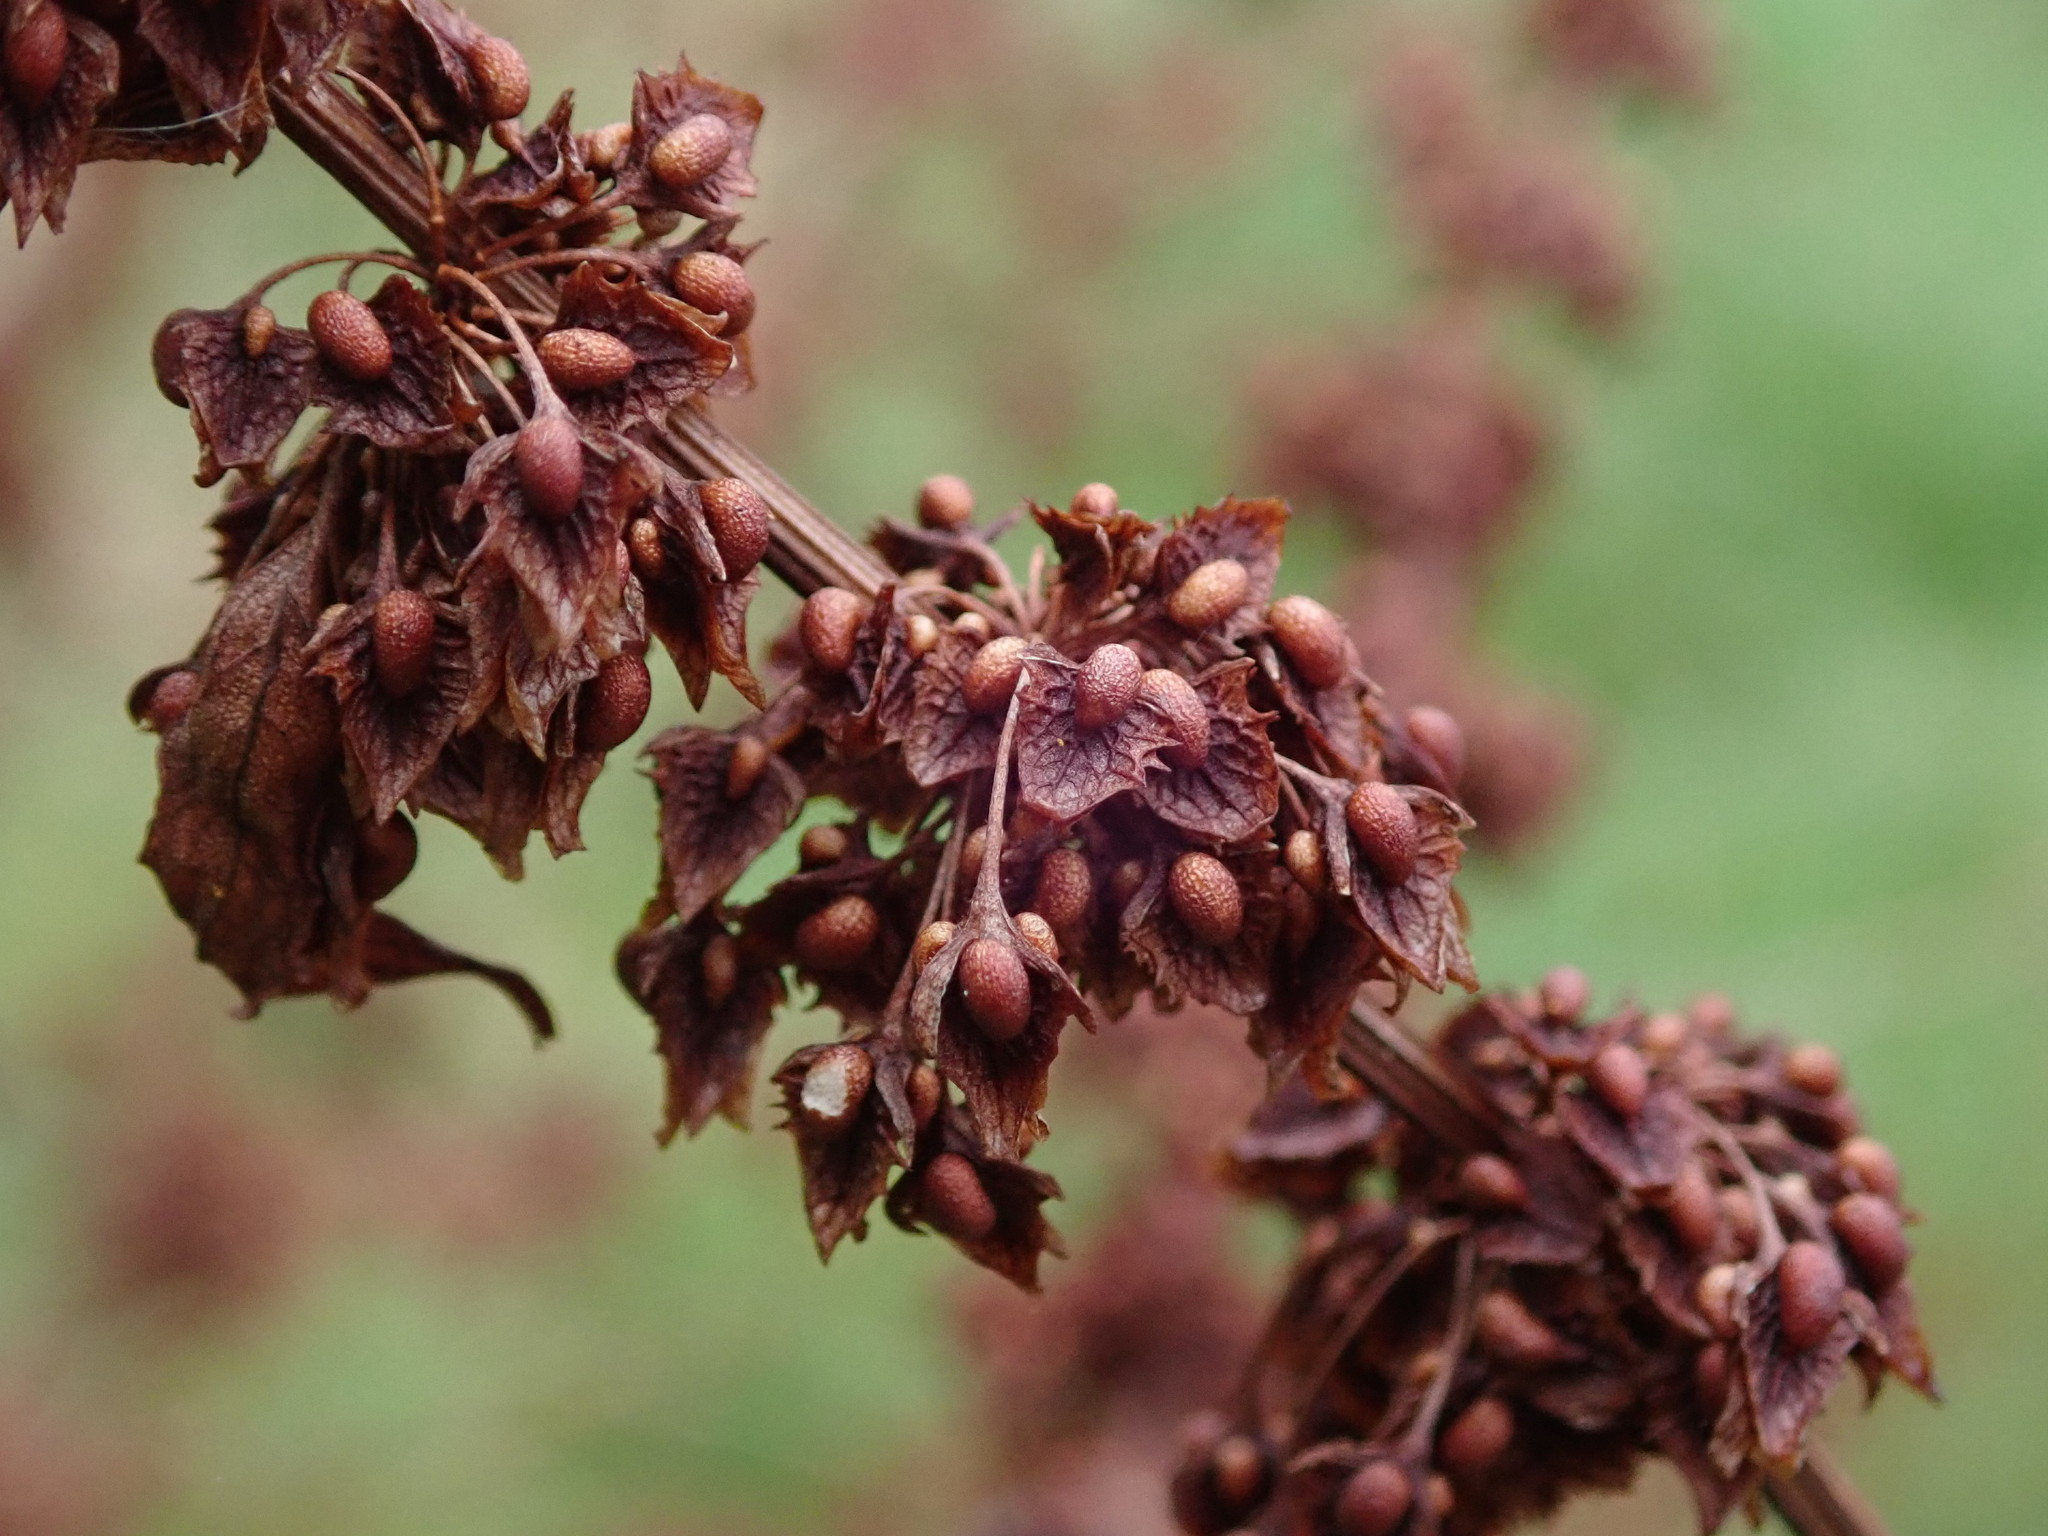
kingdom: Plantae
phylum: Tracheophyta
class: Magnoliopsida
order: Caryophyllales
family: Polygonaceae
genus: Rumex
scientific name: Rumex obtusifolius
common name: Bitter dock
